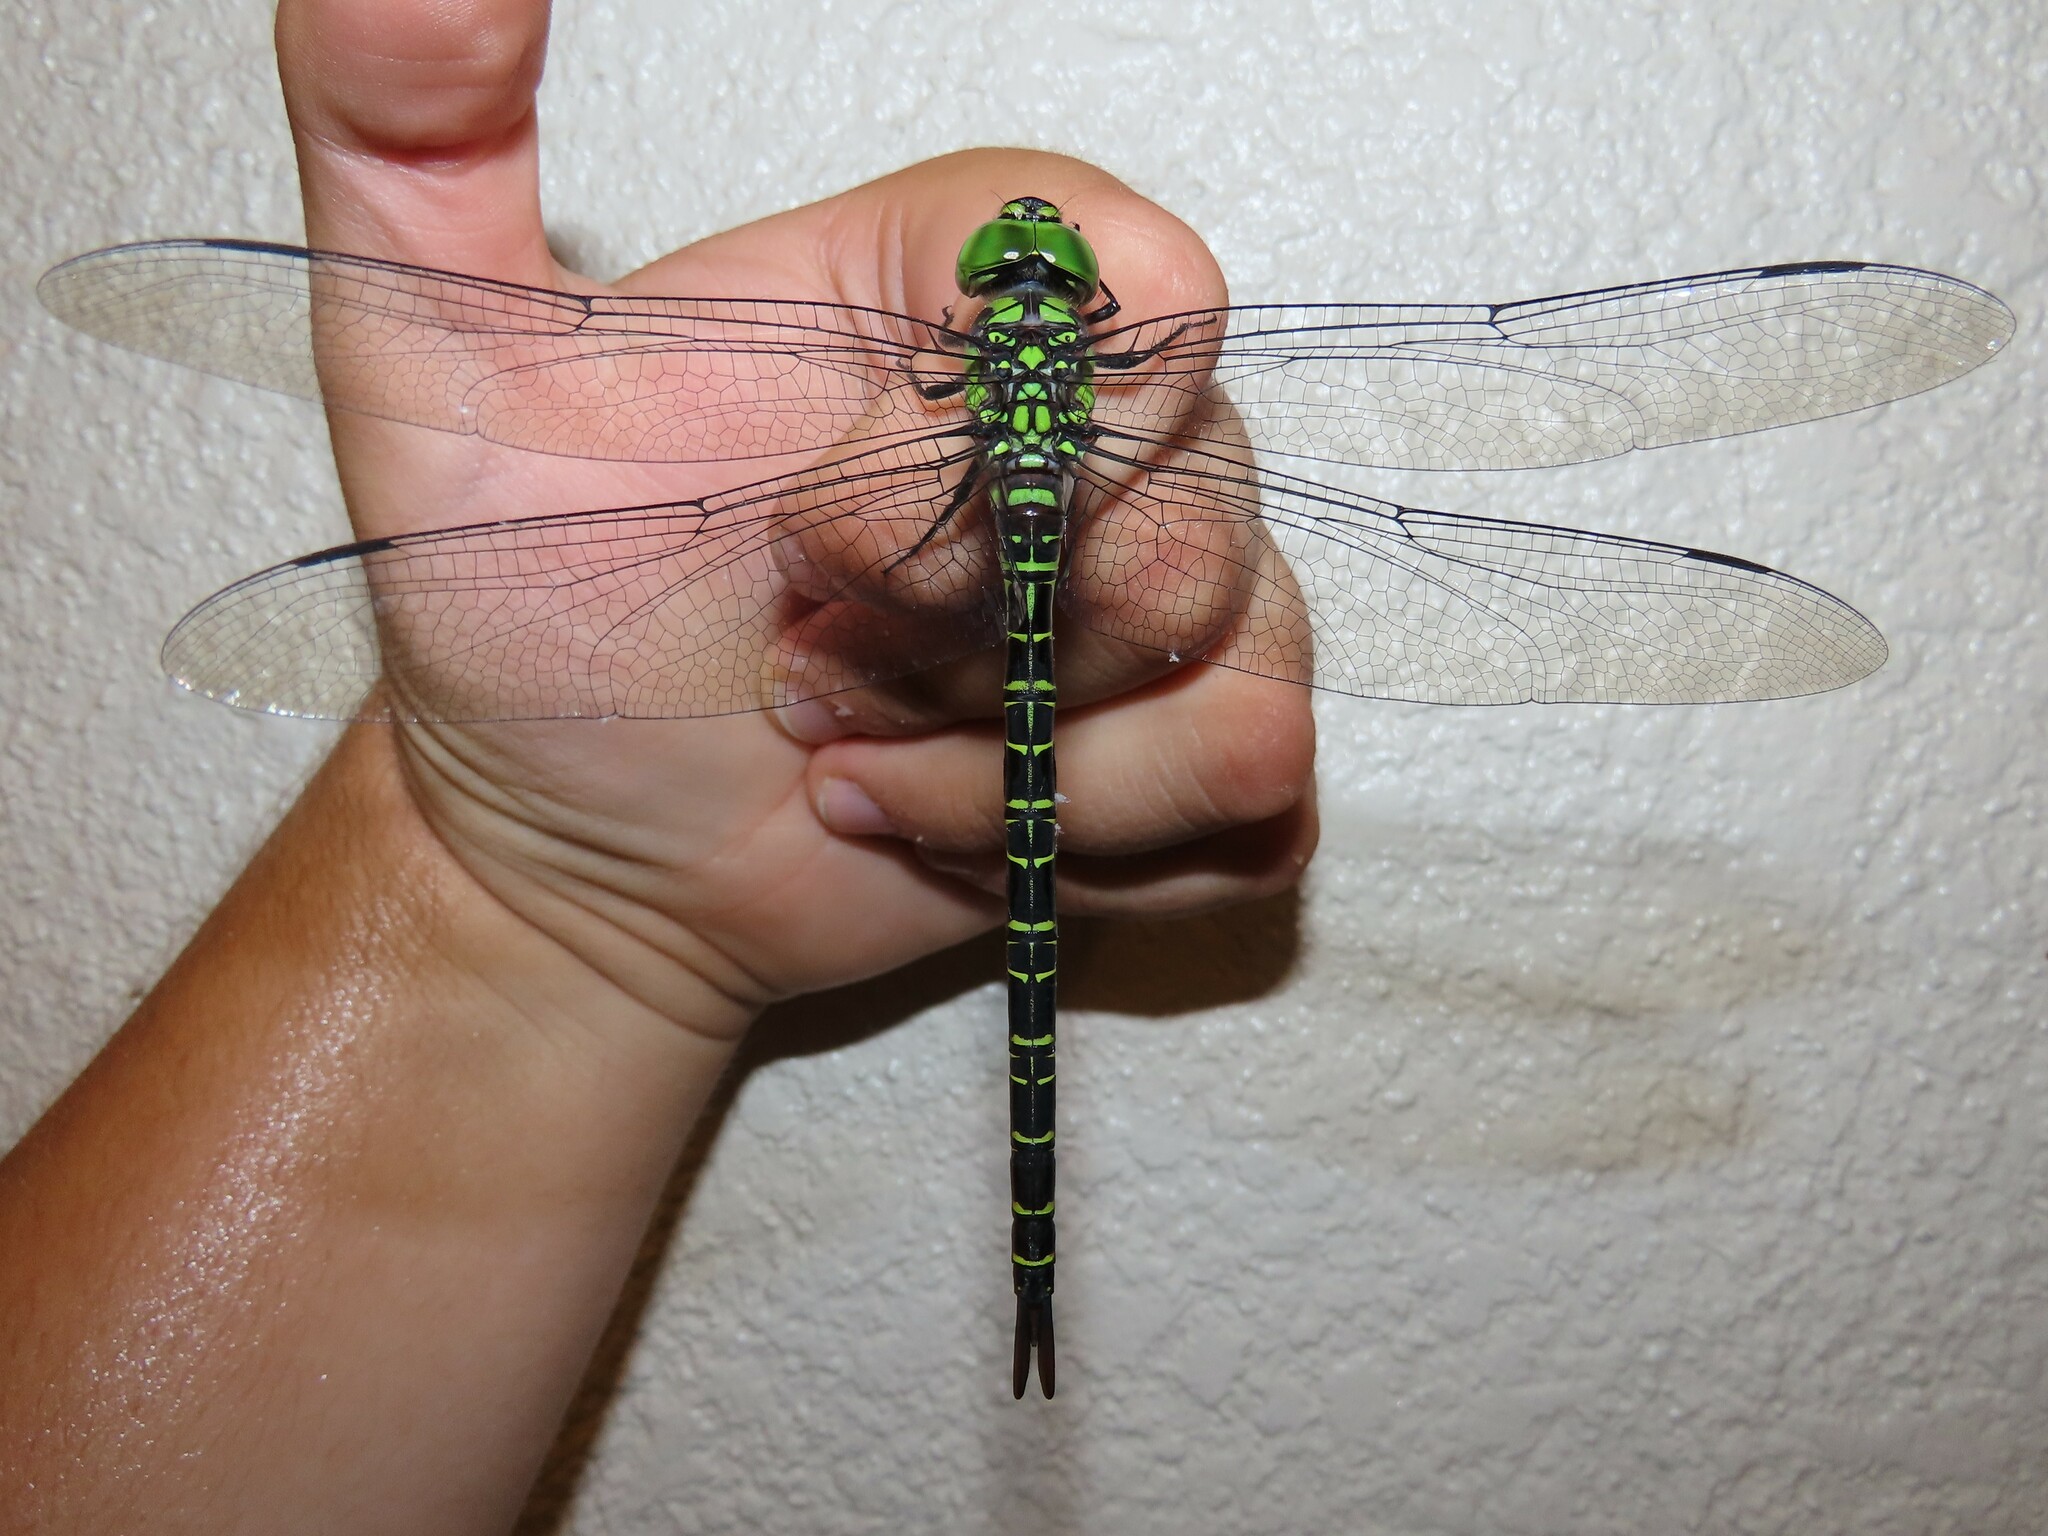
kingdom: Animalia
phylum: Arthropoda
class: Insecta
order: Odonata
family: Aeshnidae
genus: Coryphaeschna
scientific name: Coryphaeschna ingens
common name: Regal darner
